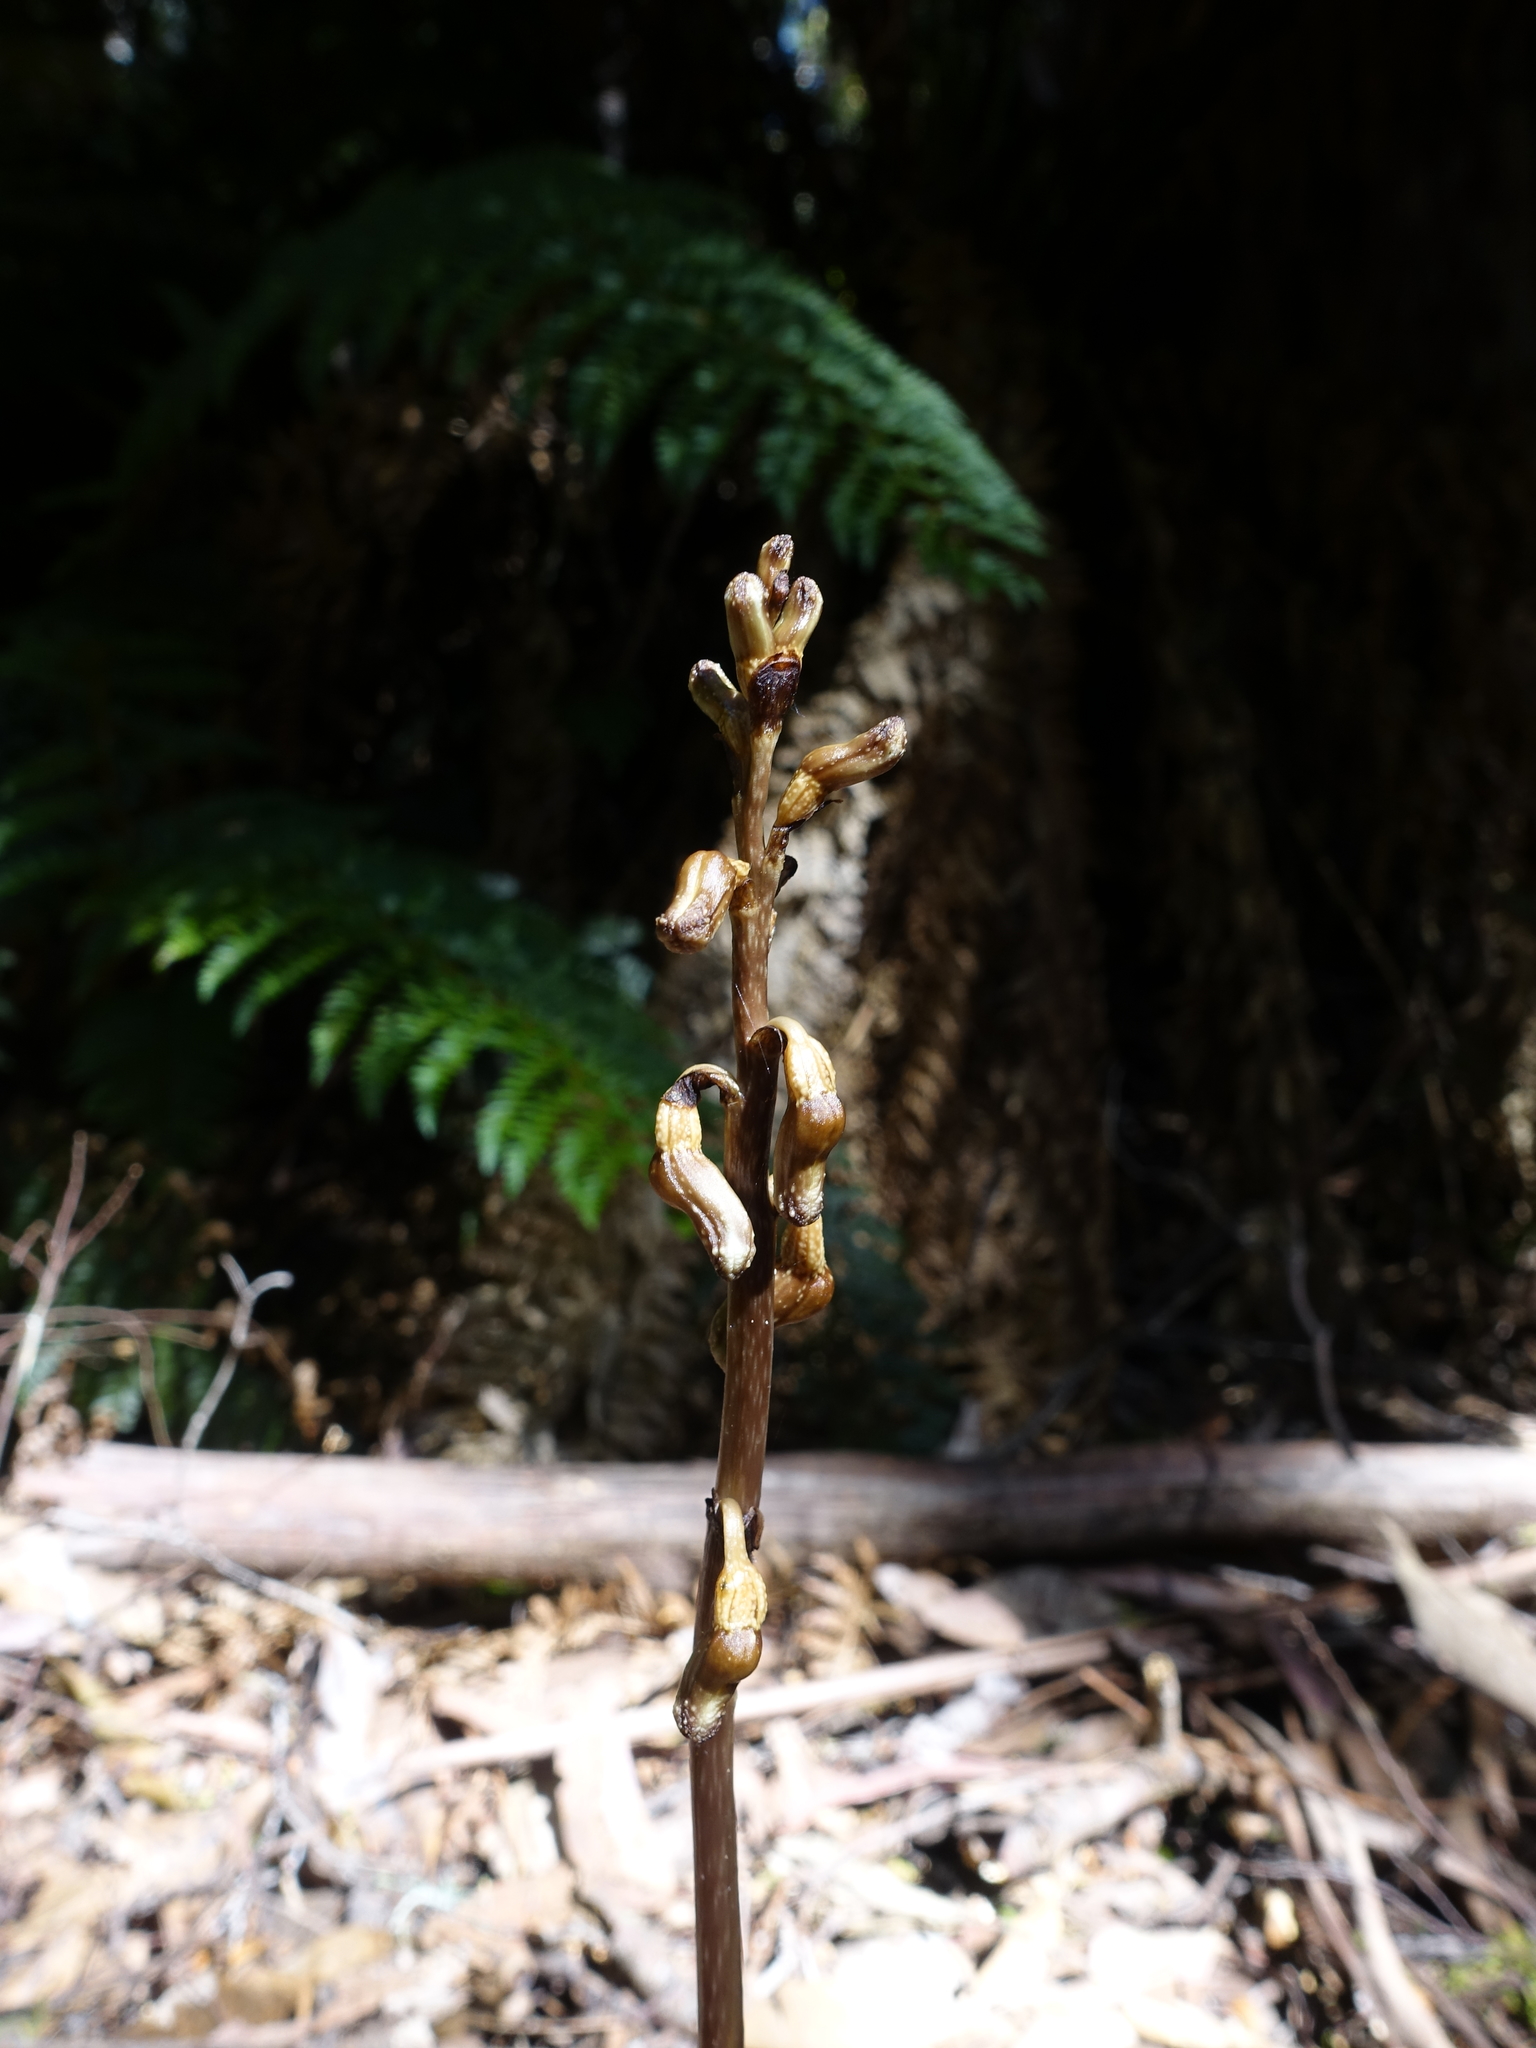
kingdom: Plantae
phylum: Tracheophyta
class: Liliopsida
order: Asparagales
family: Orchidaceae
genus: Gastrodia
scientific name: Gastrodia procera
